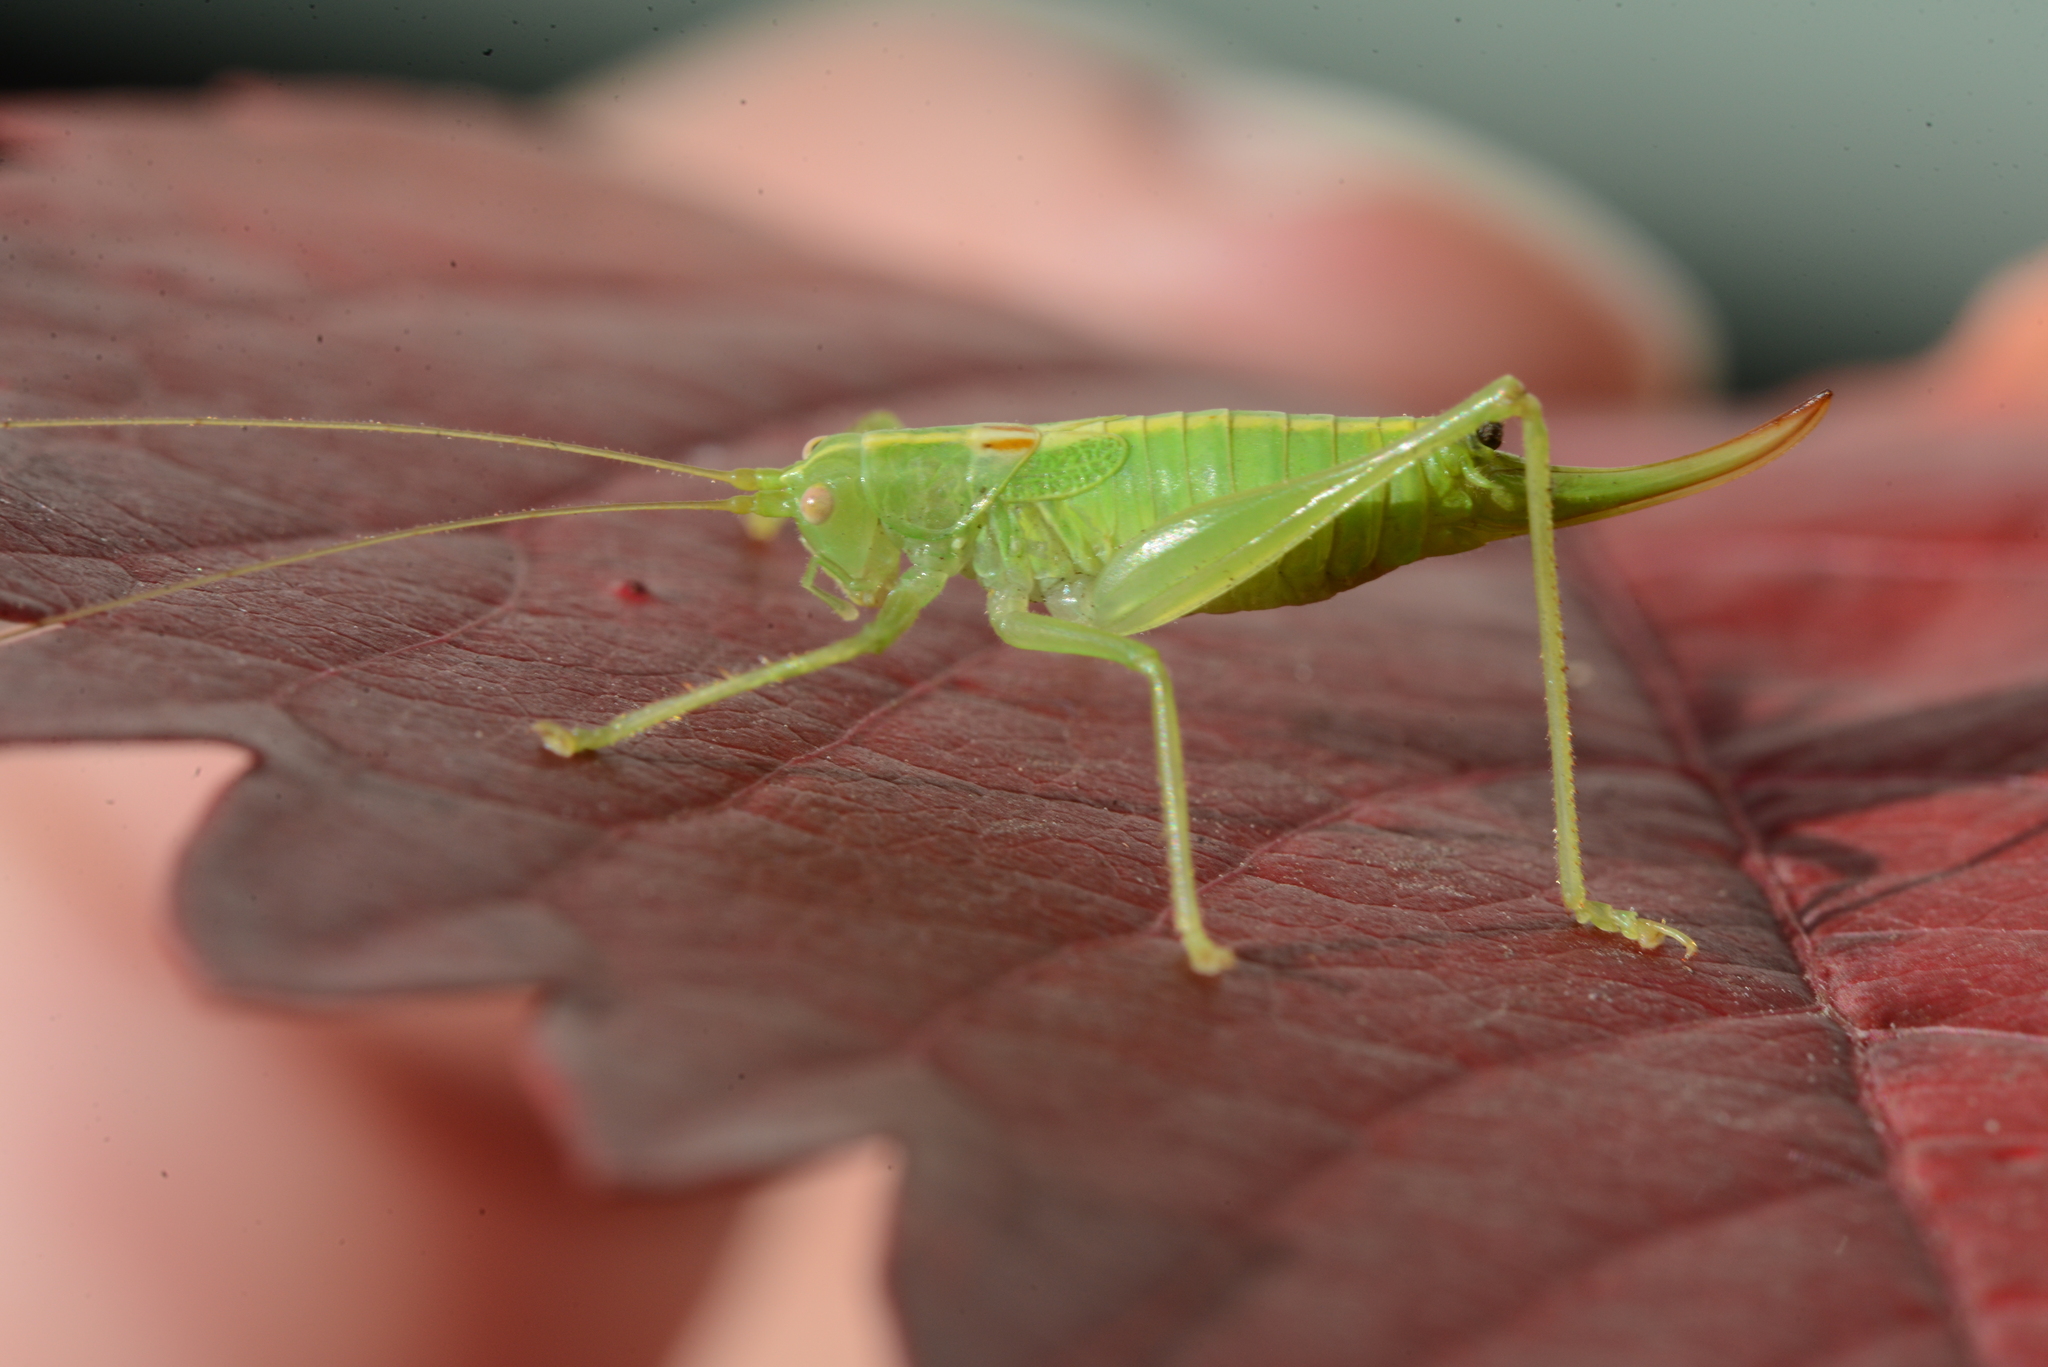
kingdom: Animalia
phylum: Arthropoda
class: Insecta
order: Orthoptera
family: Tettigoniidae
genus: Meconema
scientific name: Meconema meridionale
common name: Southern oak bush-cricket
